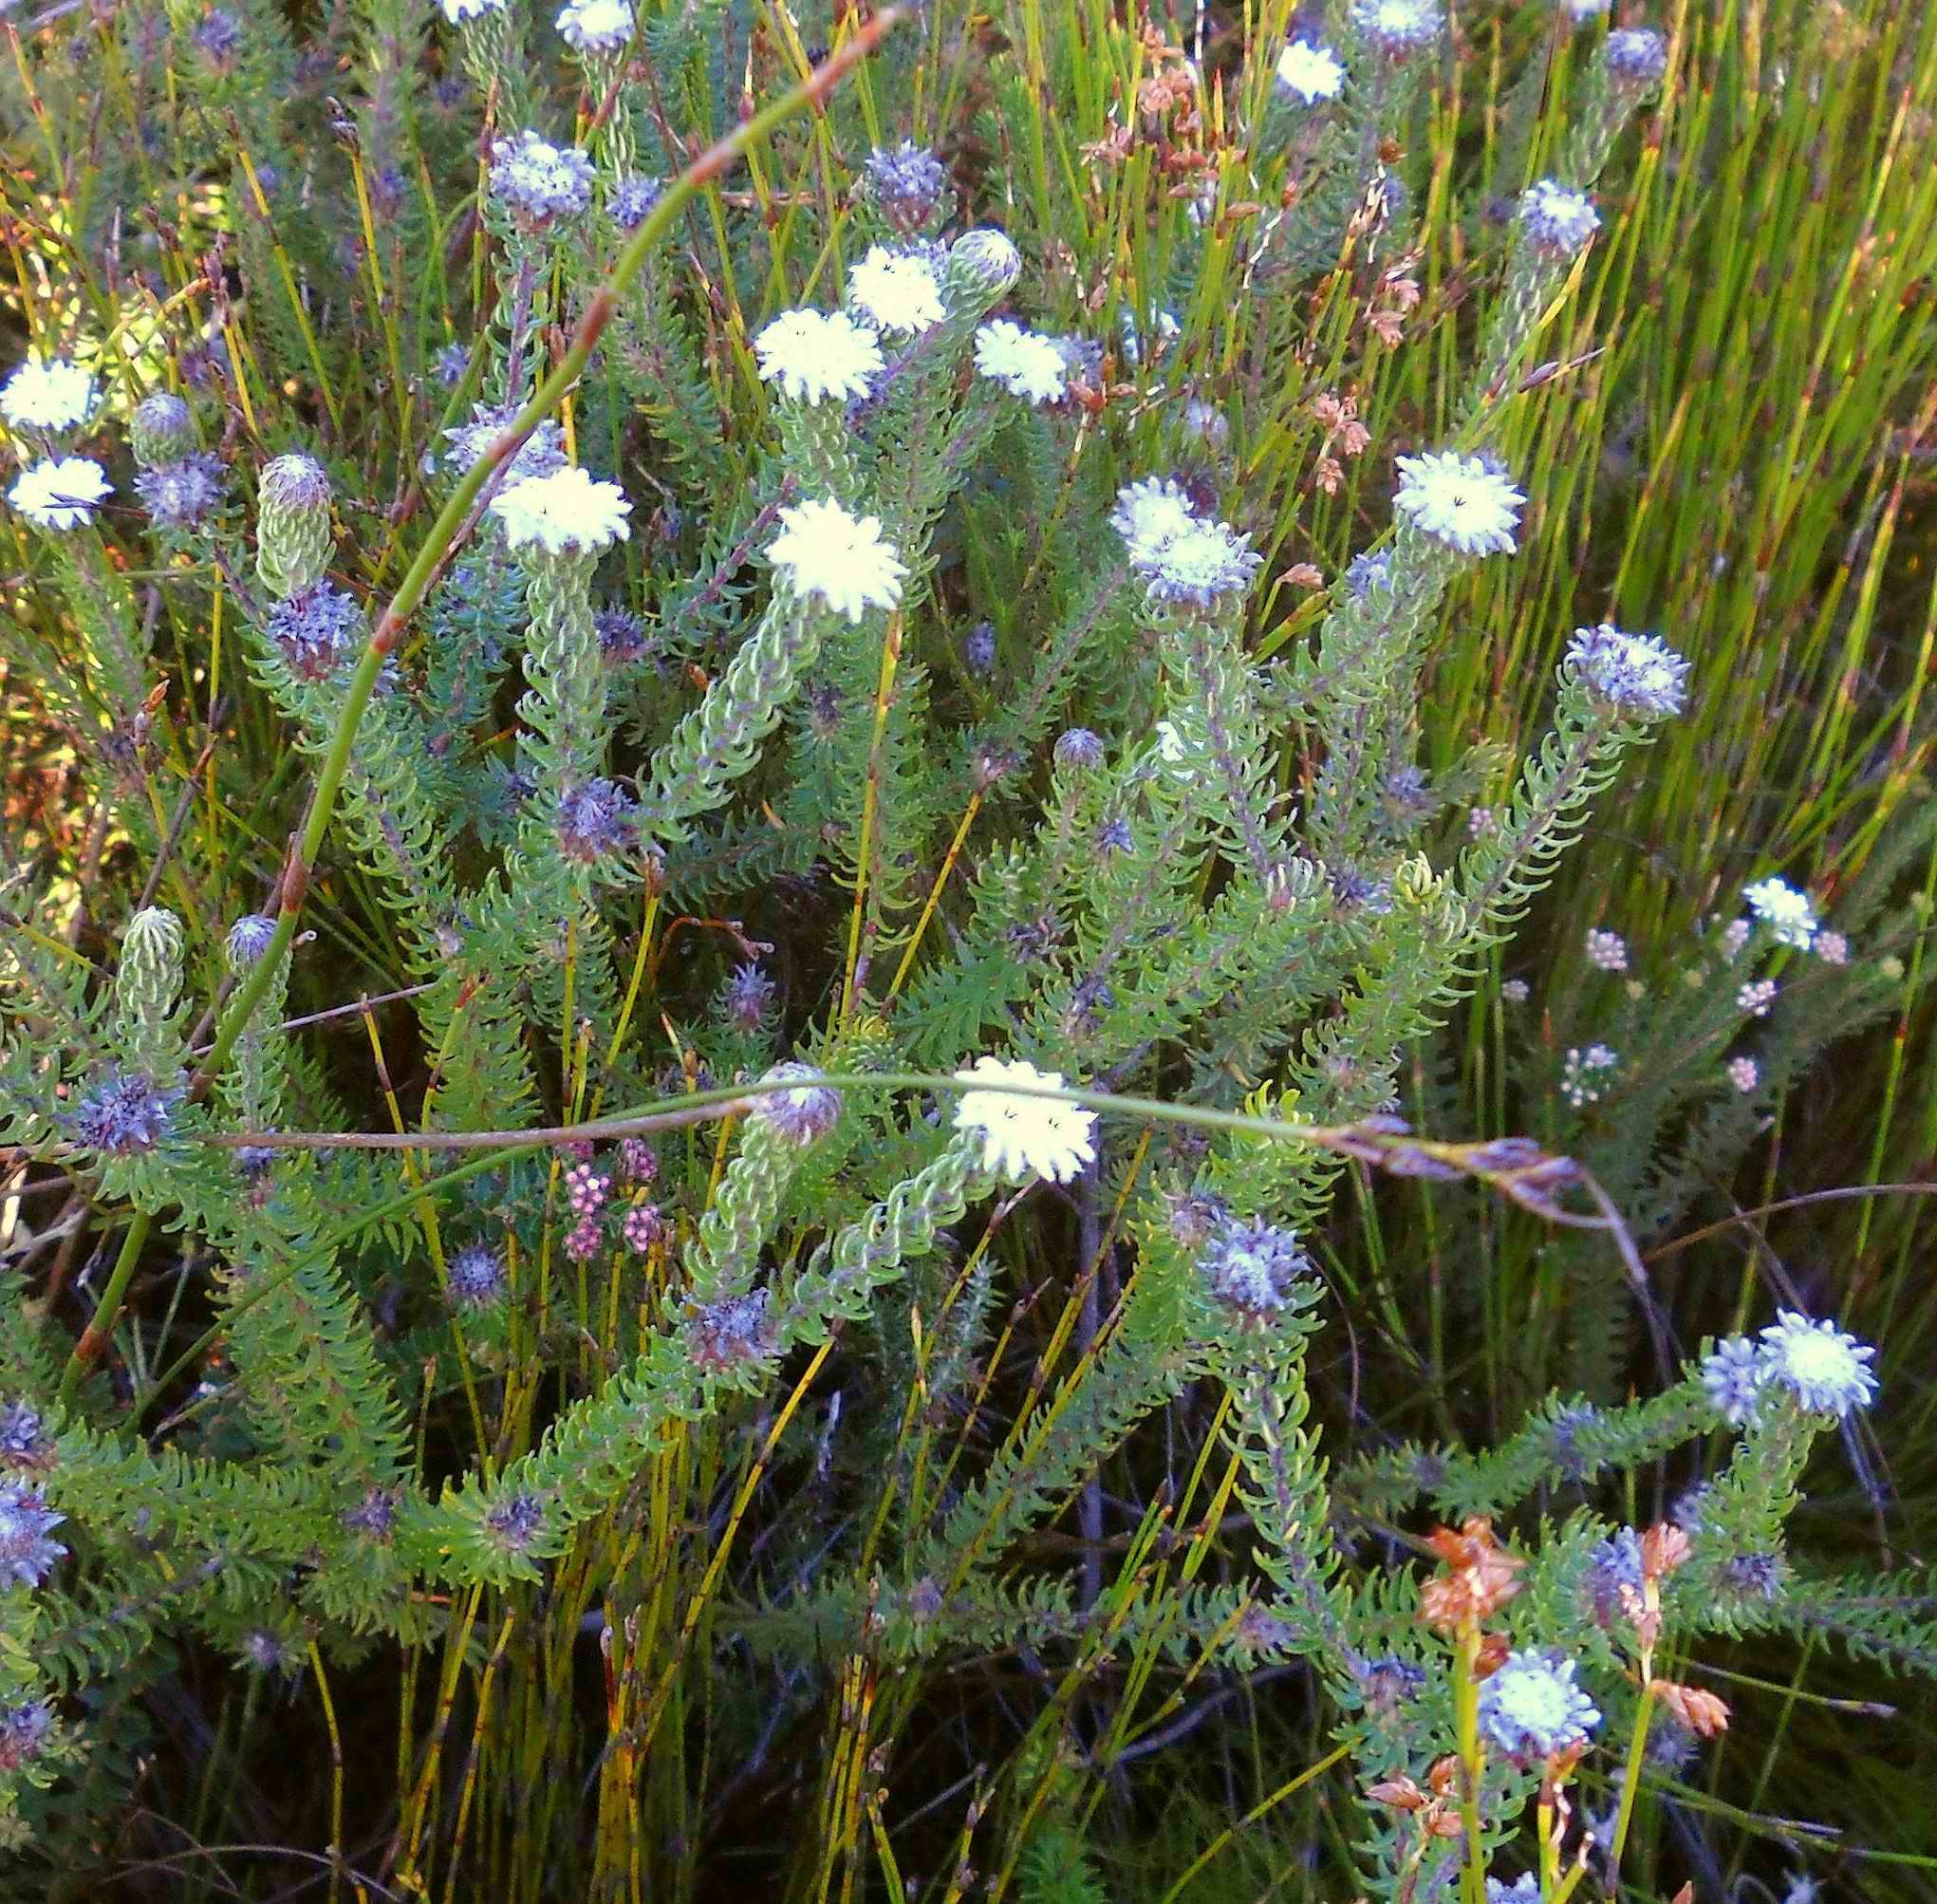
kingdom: Plantae
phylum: Tracheophyta
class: Magnoliopsida
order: Rosales
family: Rhamnaceae
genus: Phylica
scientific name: Phylica curvifolia
